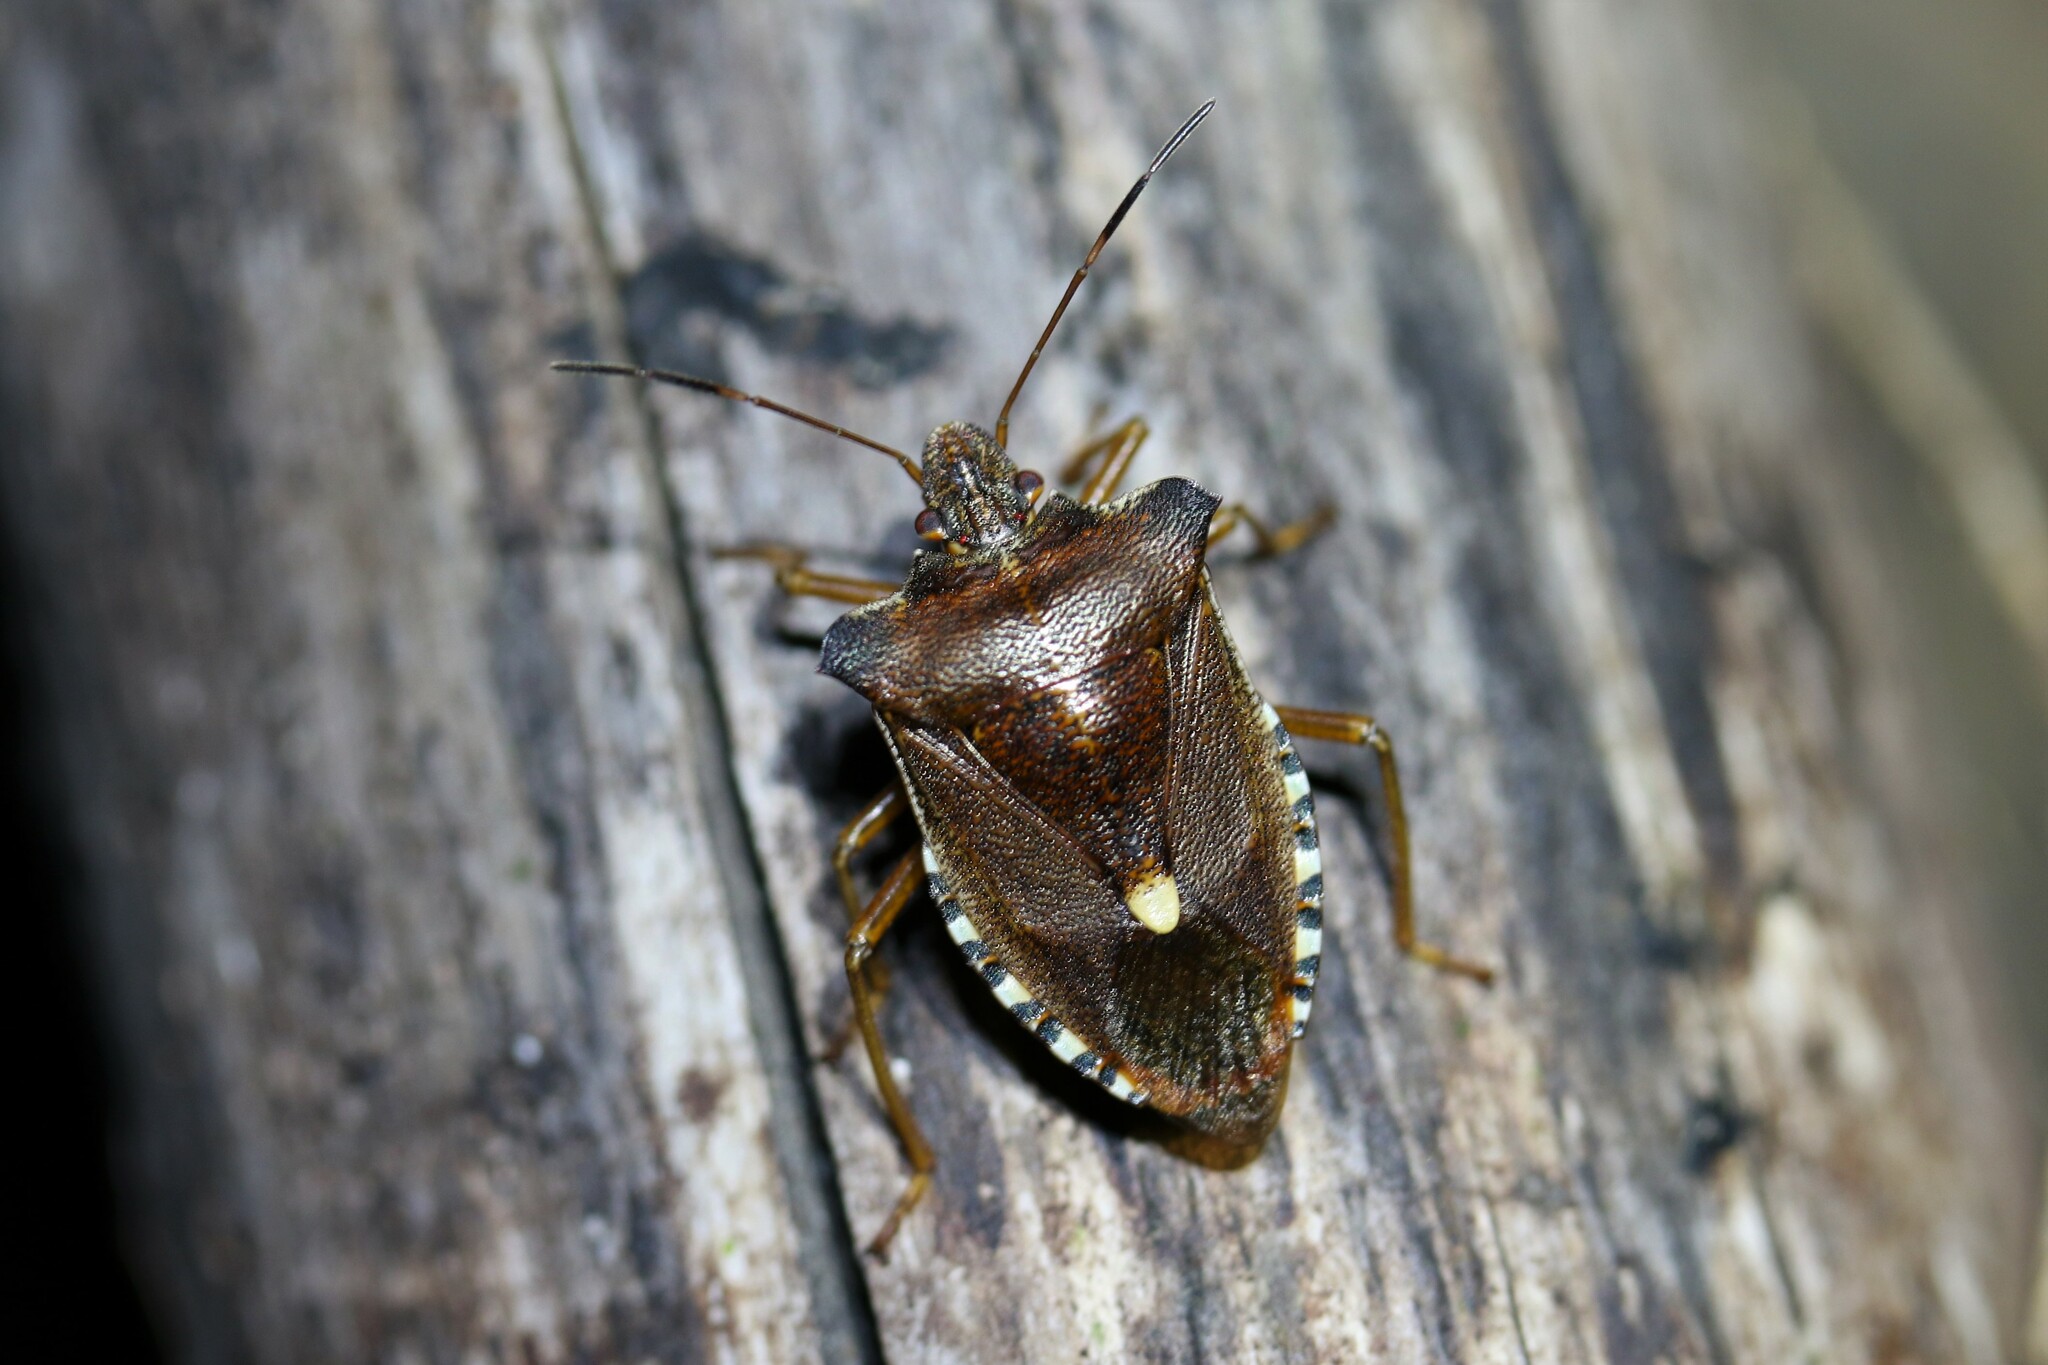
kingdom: Animalia
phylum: Arthropoda
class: Insecta
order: Hemiptera
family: Pentatomidae
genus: Pentatoma
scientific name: Pentatoma rufipes
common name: Forest bug
